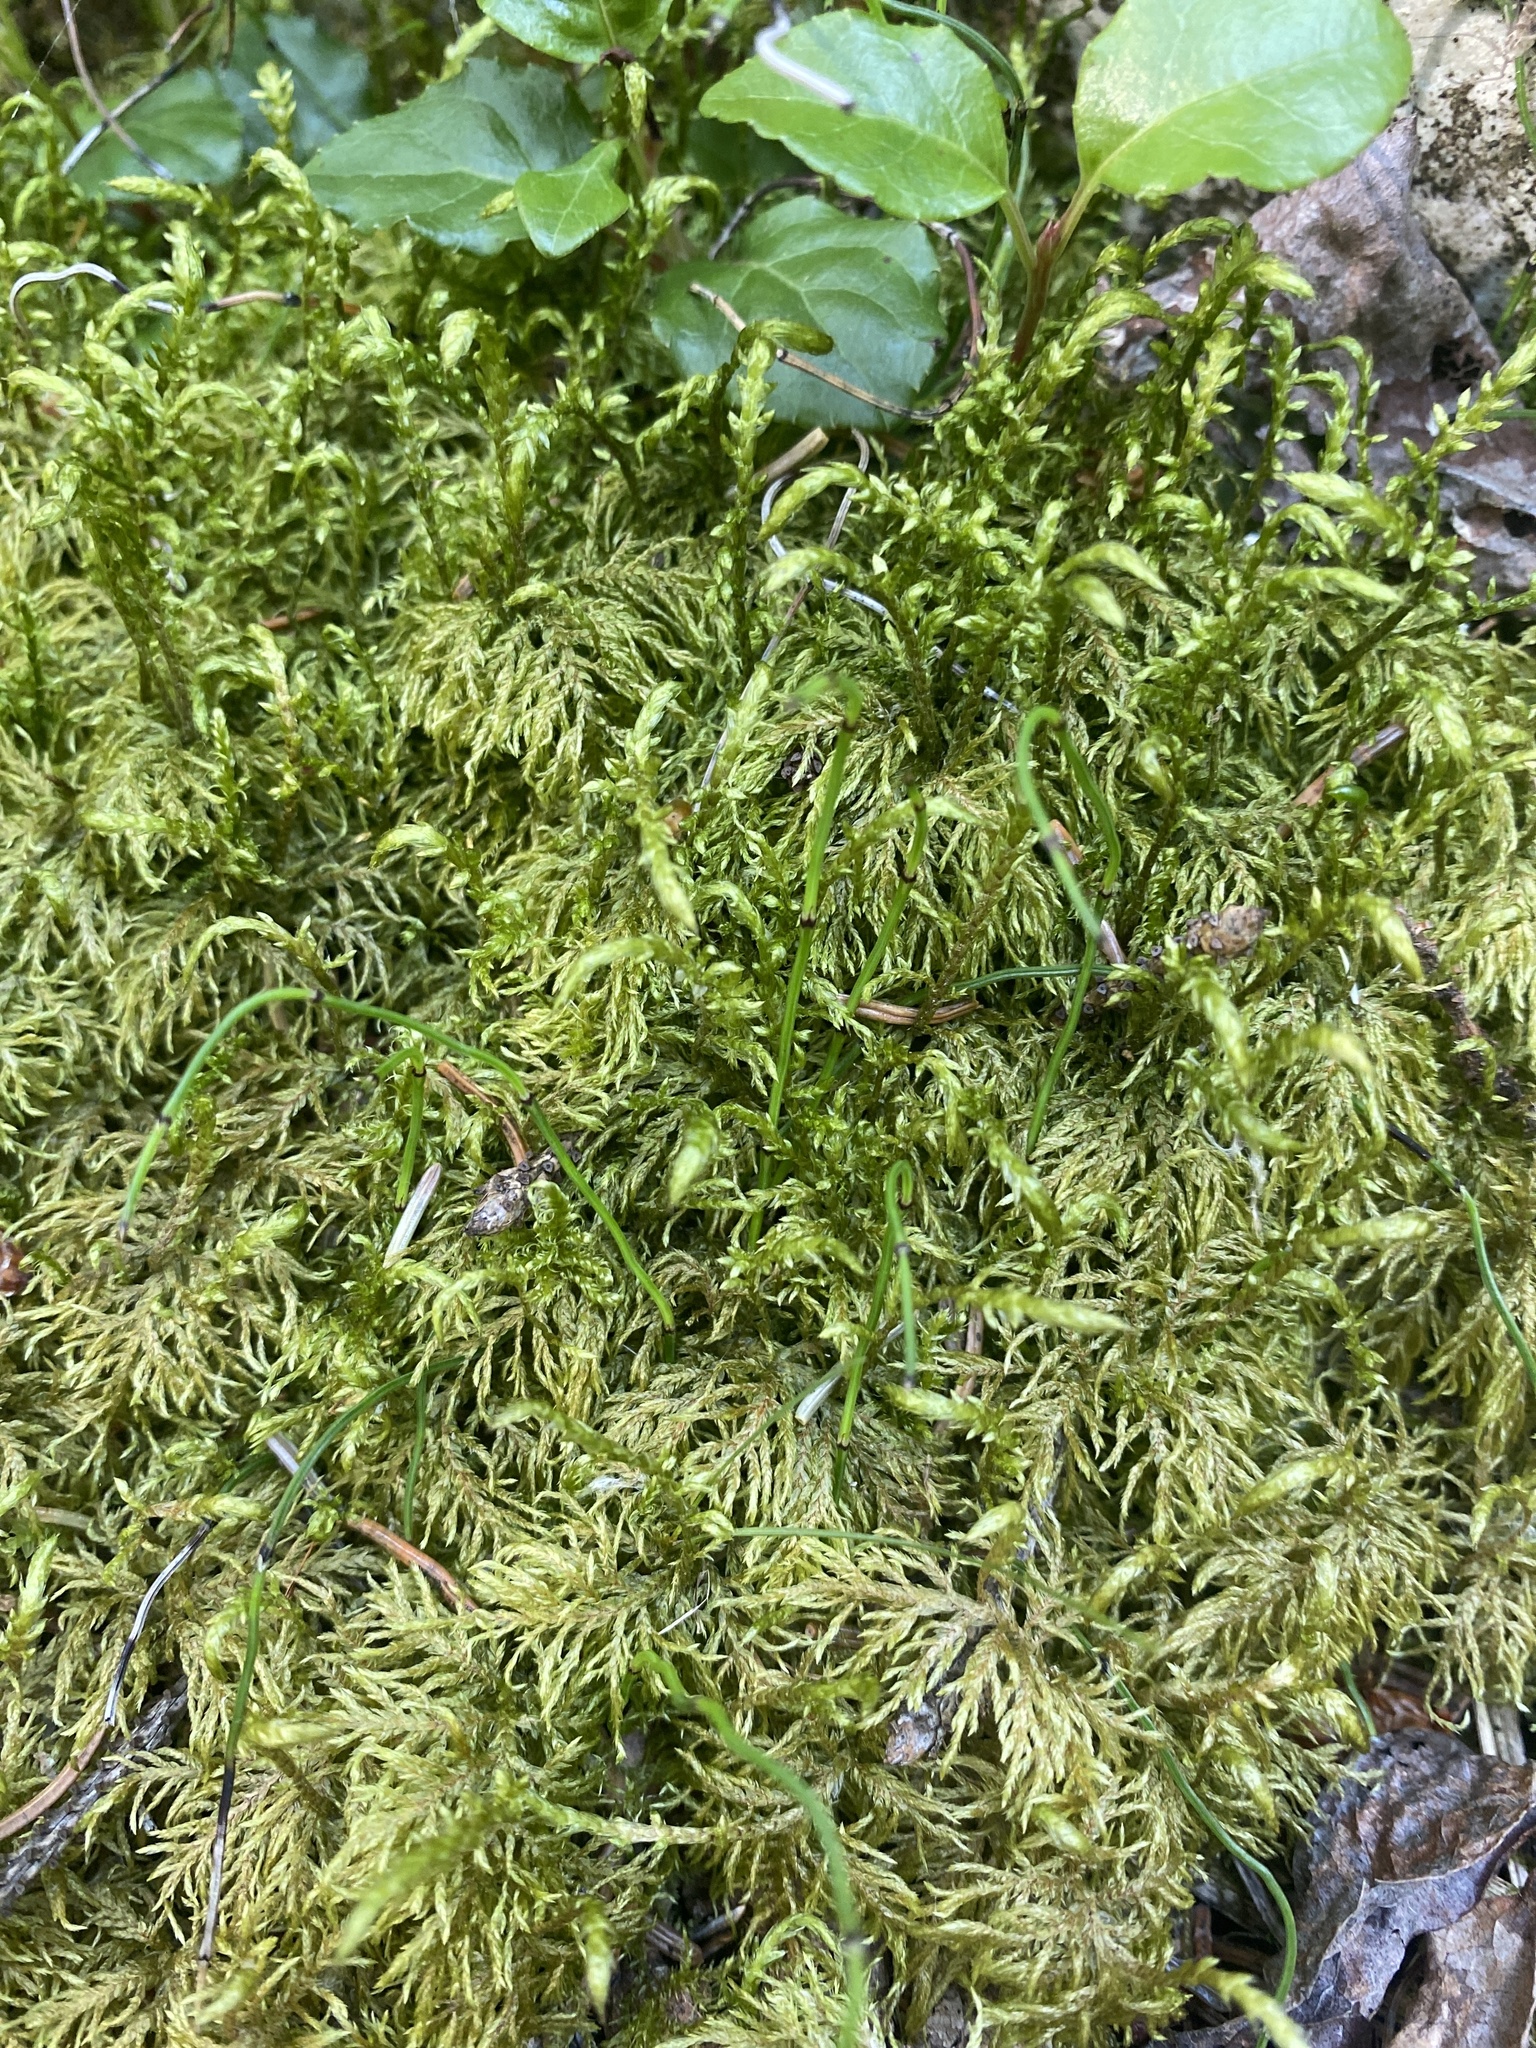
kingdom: Plantae
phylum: Bryophyta
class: Bryopsida
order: Hypnales
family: Hylocomiaceae
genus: Hylocomium
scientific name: Hylocomium splendens
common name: Stairstep moss
